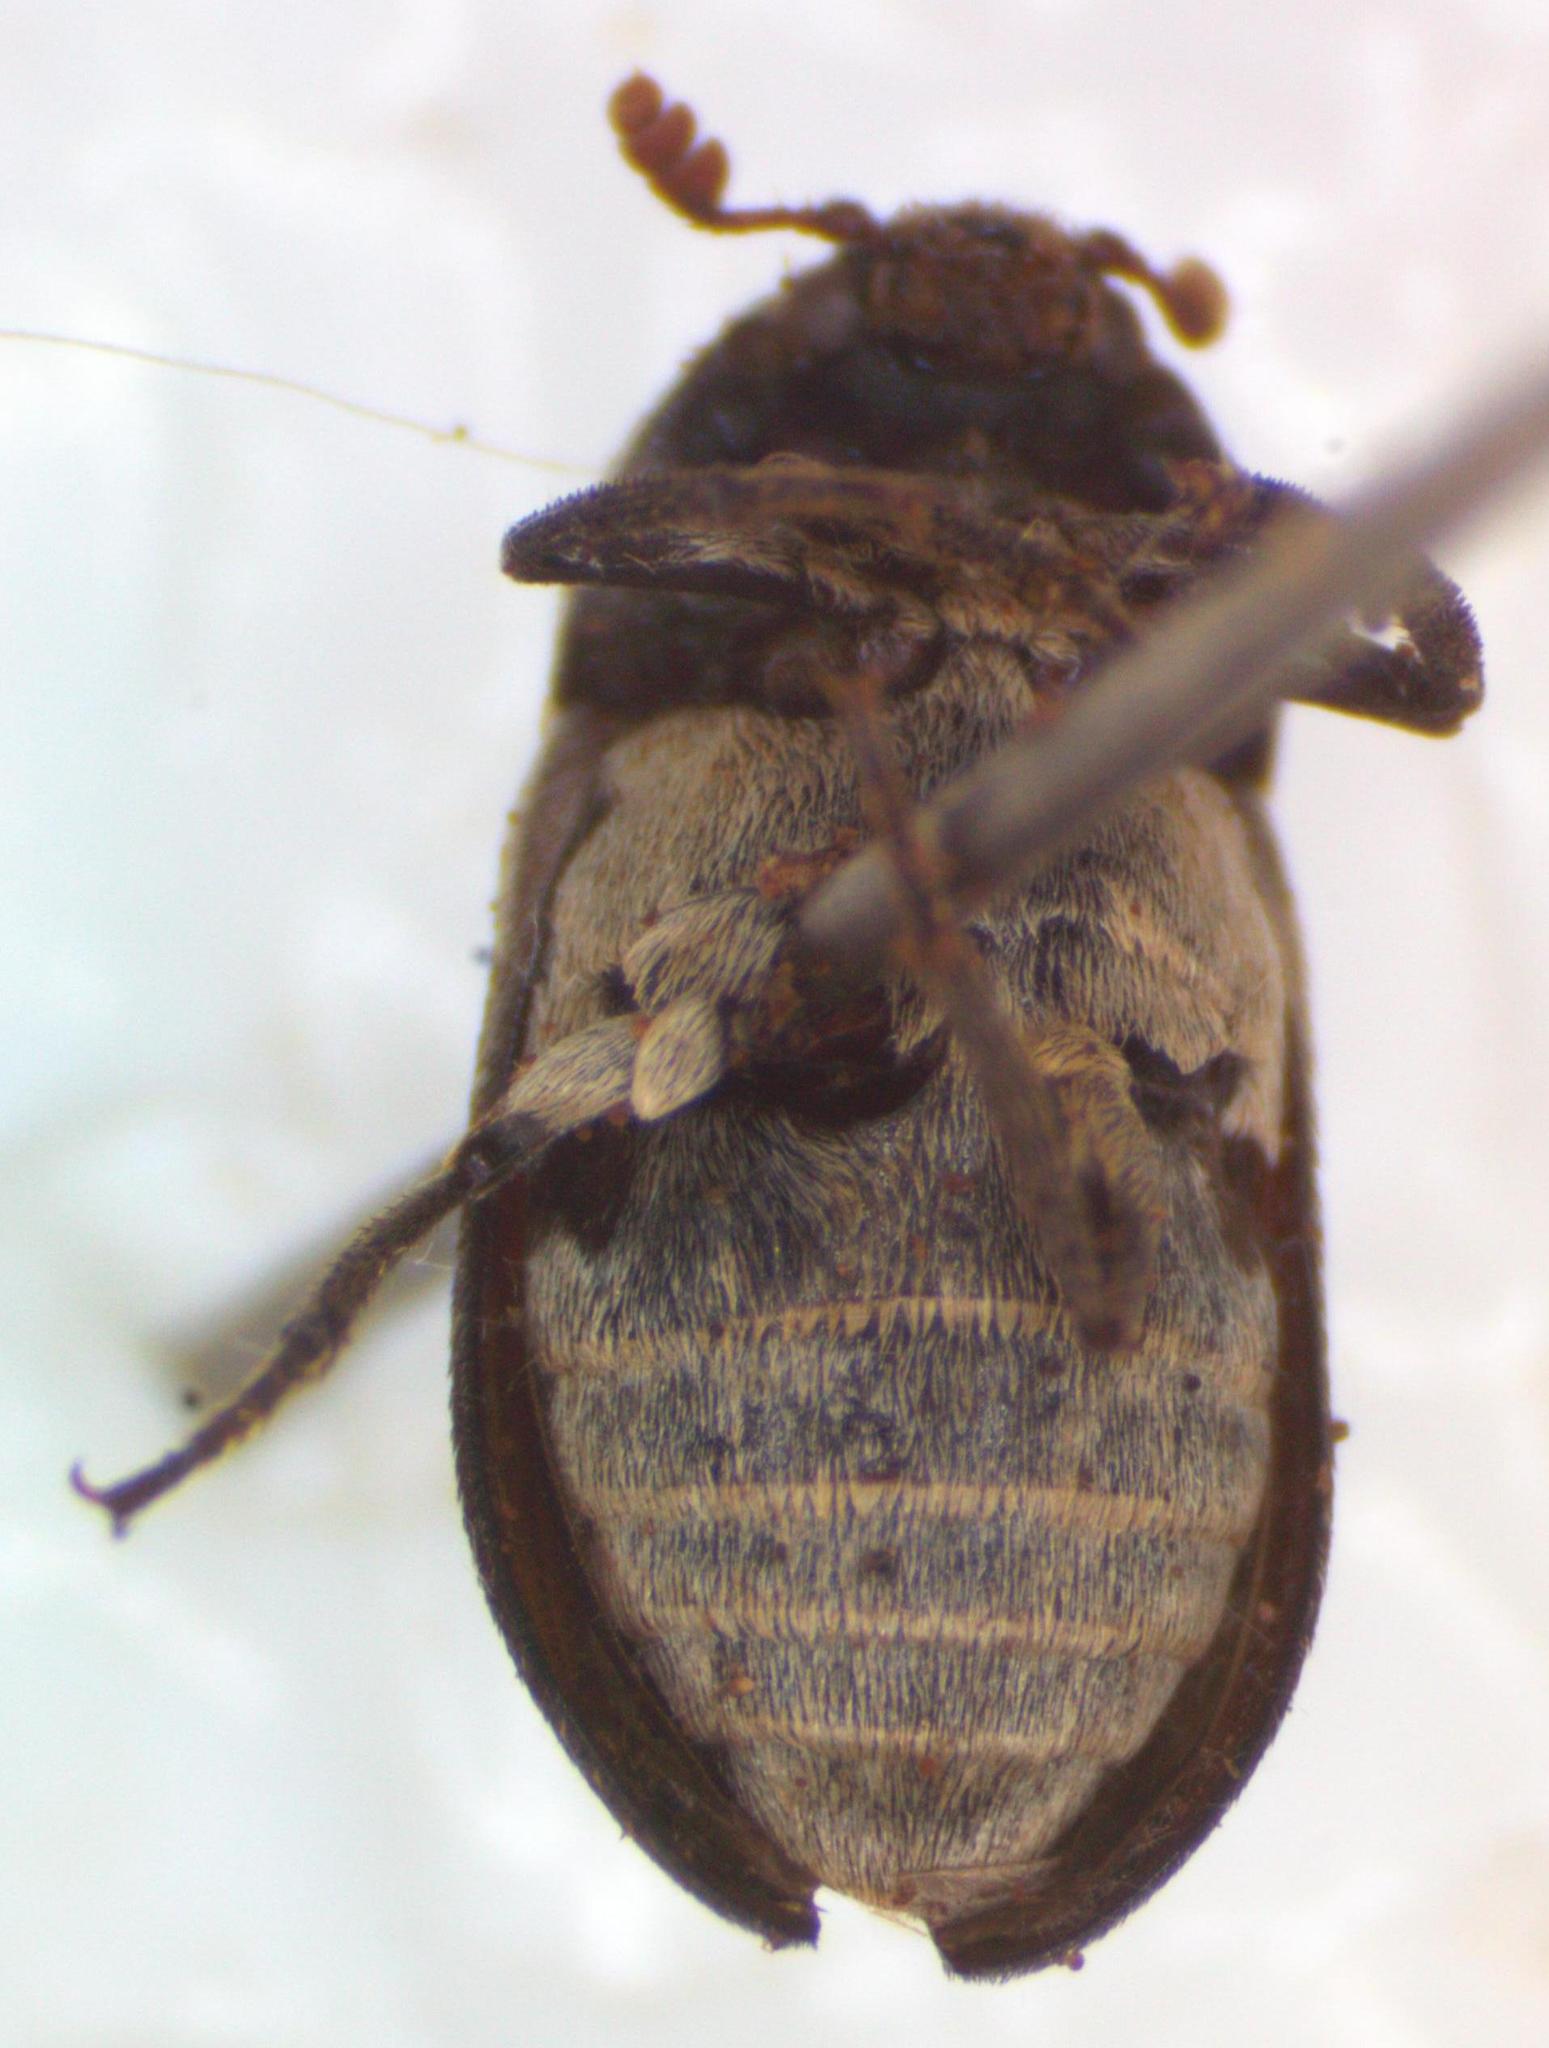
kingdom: Animalia
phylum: Arthropoda
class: Insecta
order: Coleoptera
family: Dermestidae
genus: Dermestes
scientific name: Dermestes carnivorus
